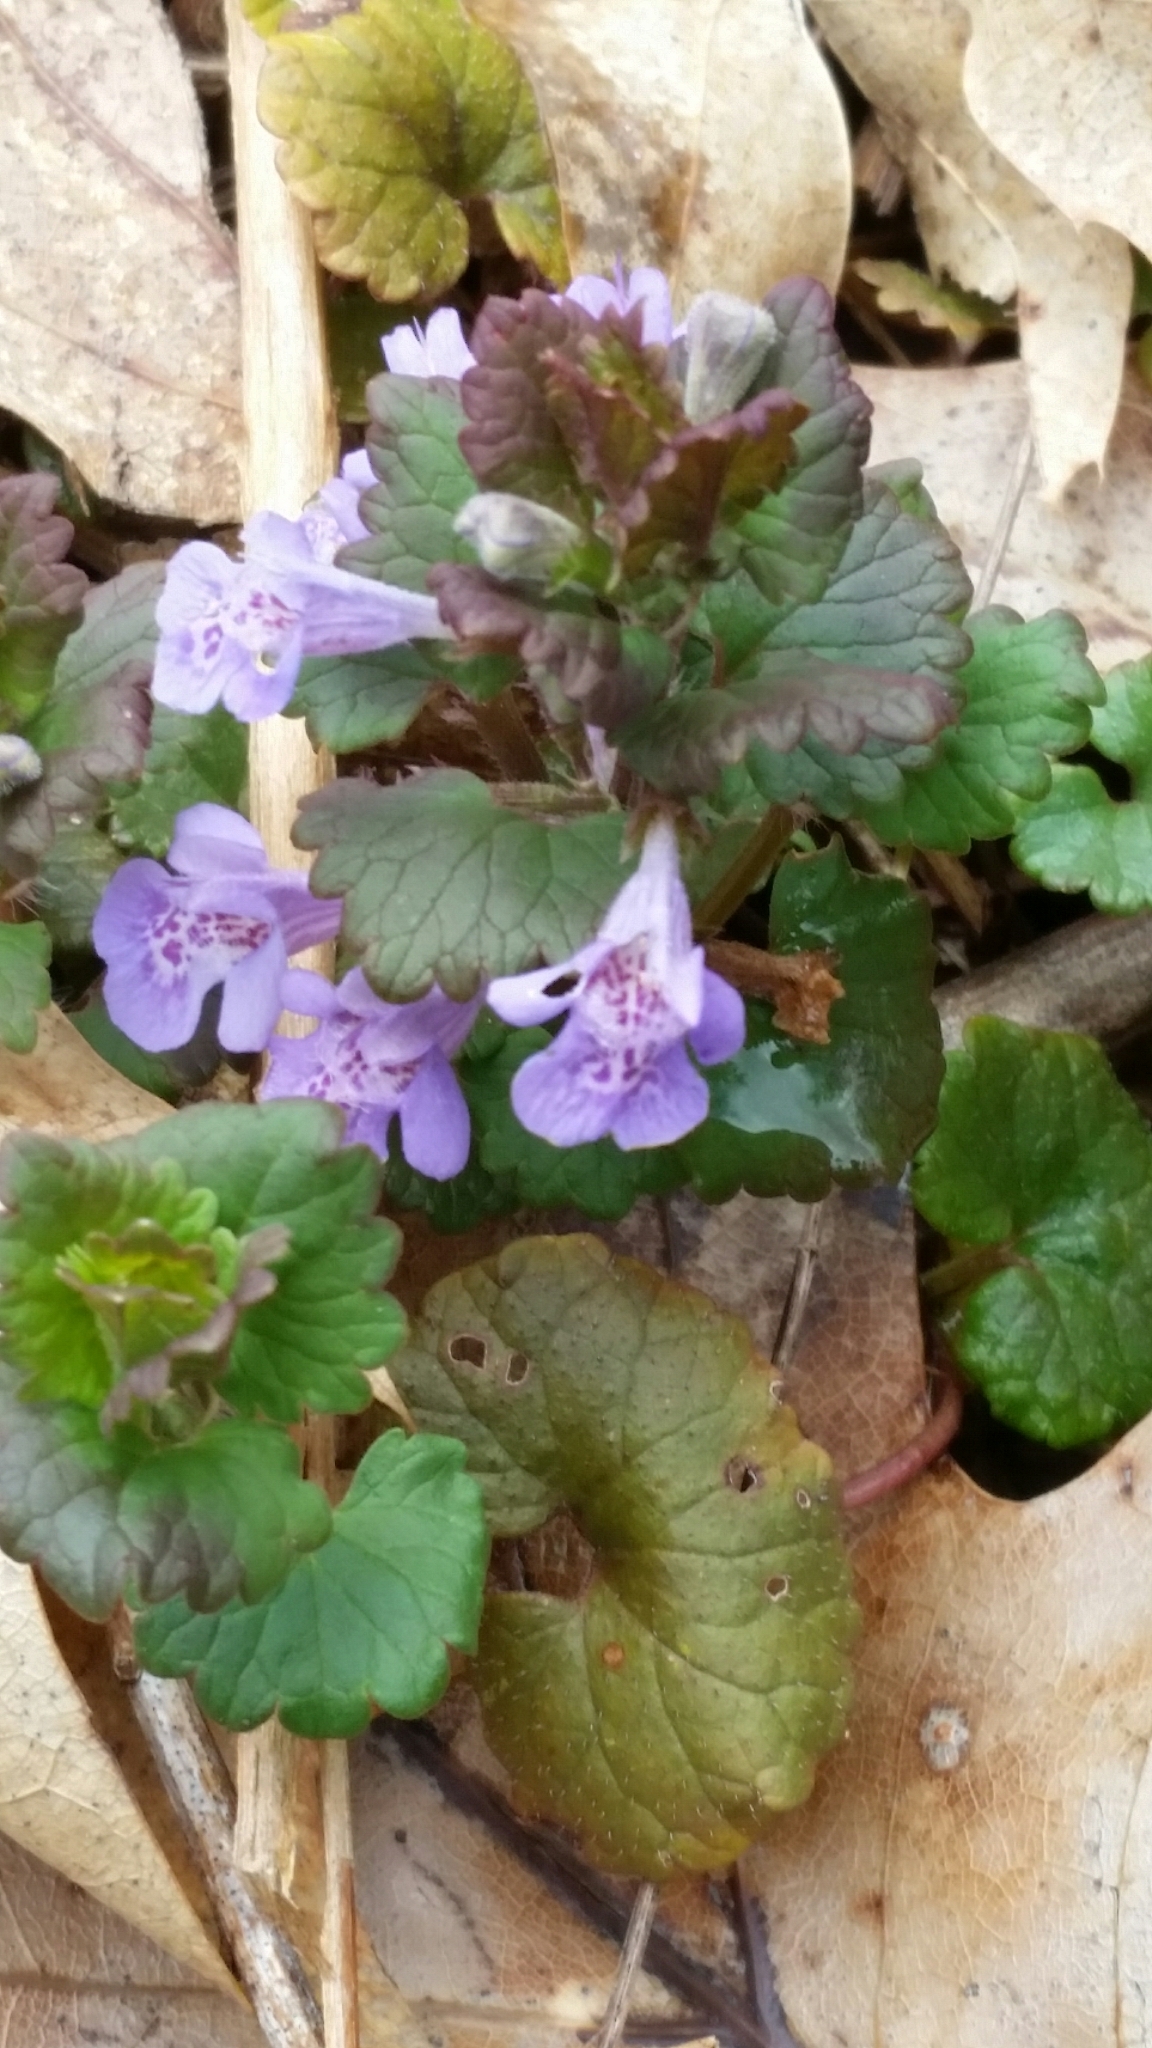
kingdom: Plantae
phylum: Tracheophyta
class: Magnoliopsida
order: Lamiales
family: Lamiaceae
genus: Glechoma
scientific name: Glechoma hederacea
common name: Ground ivy
